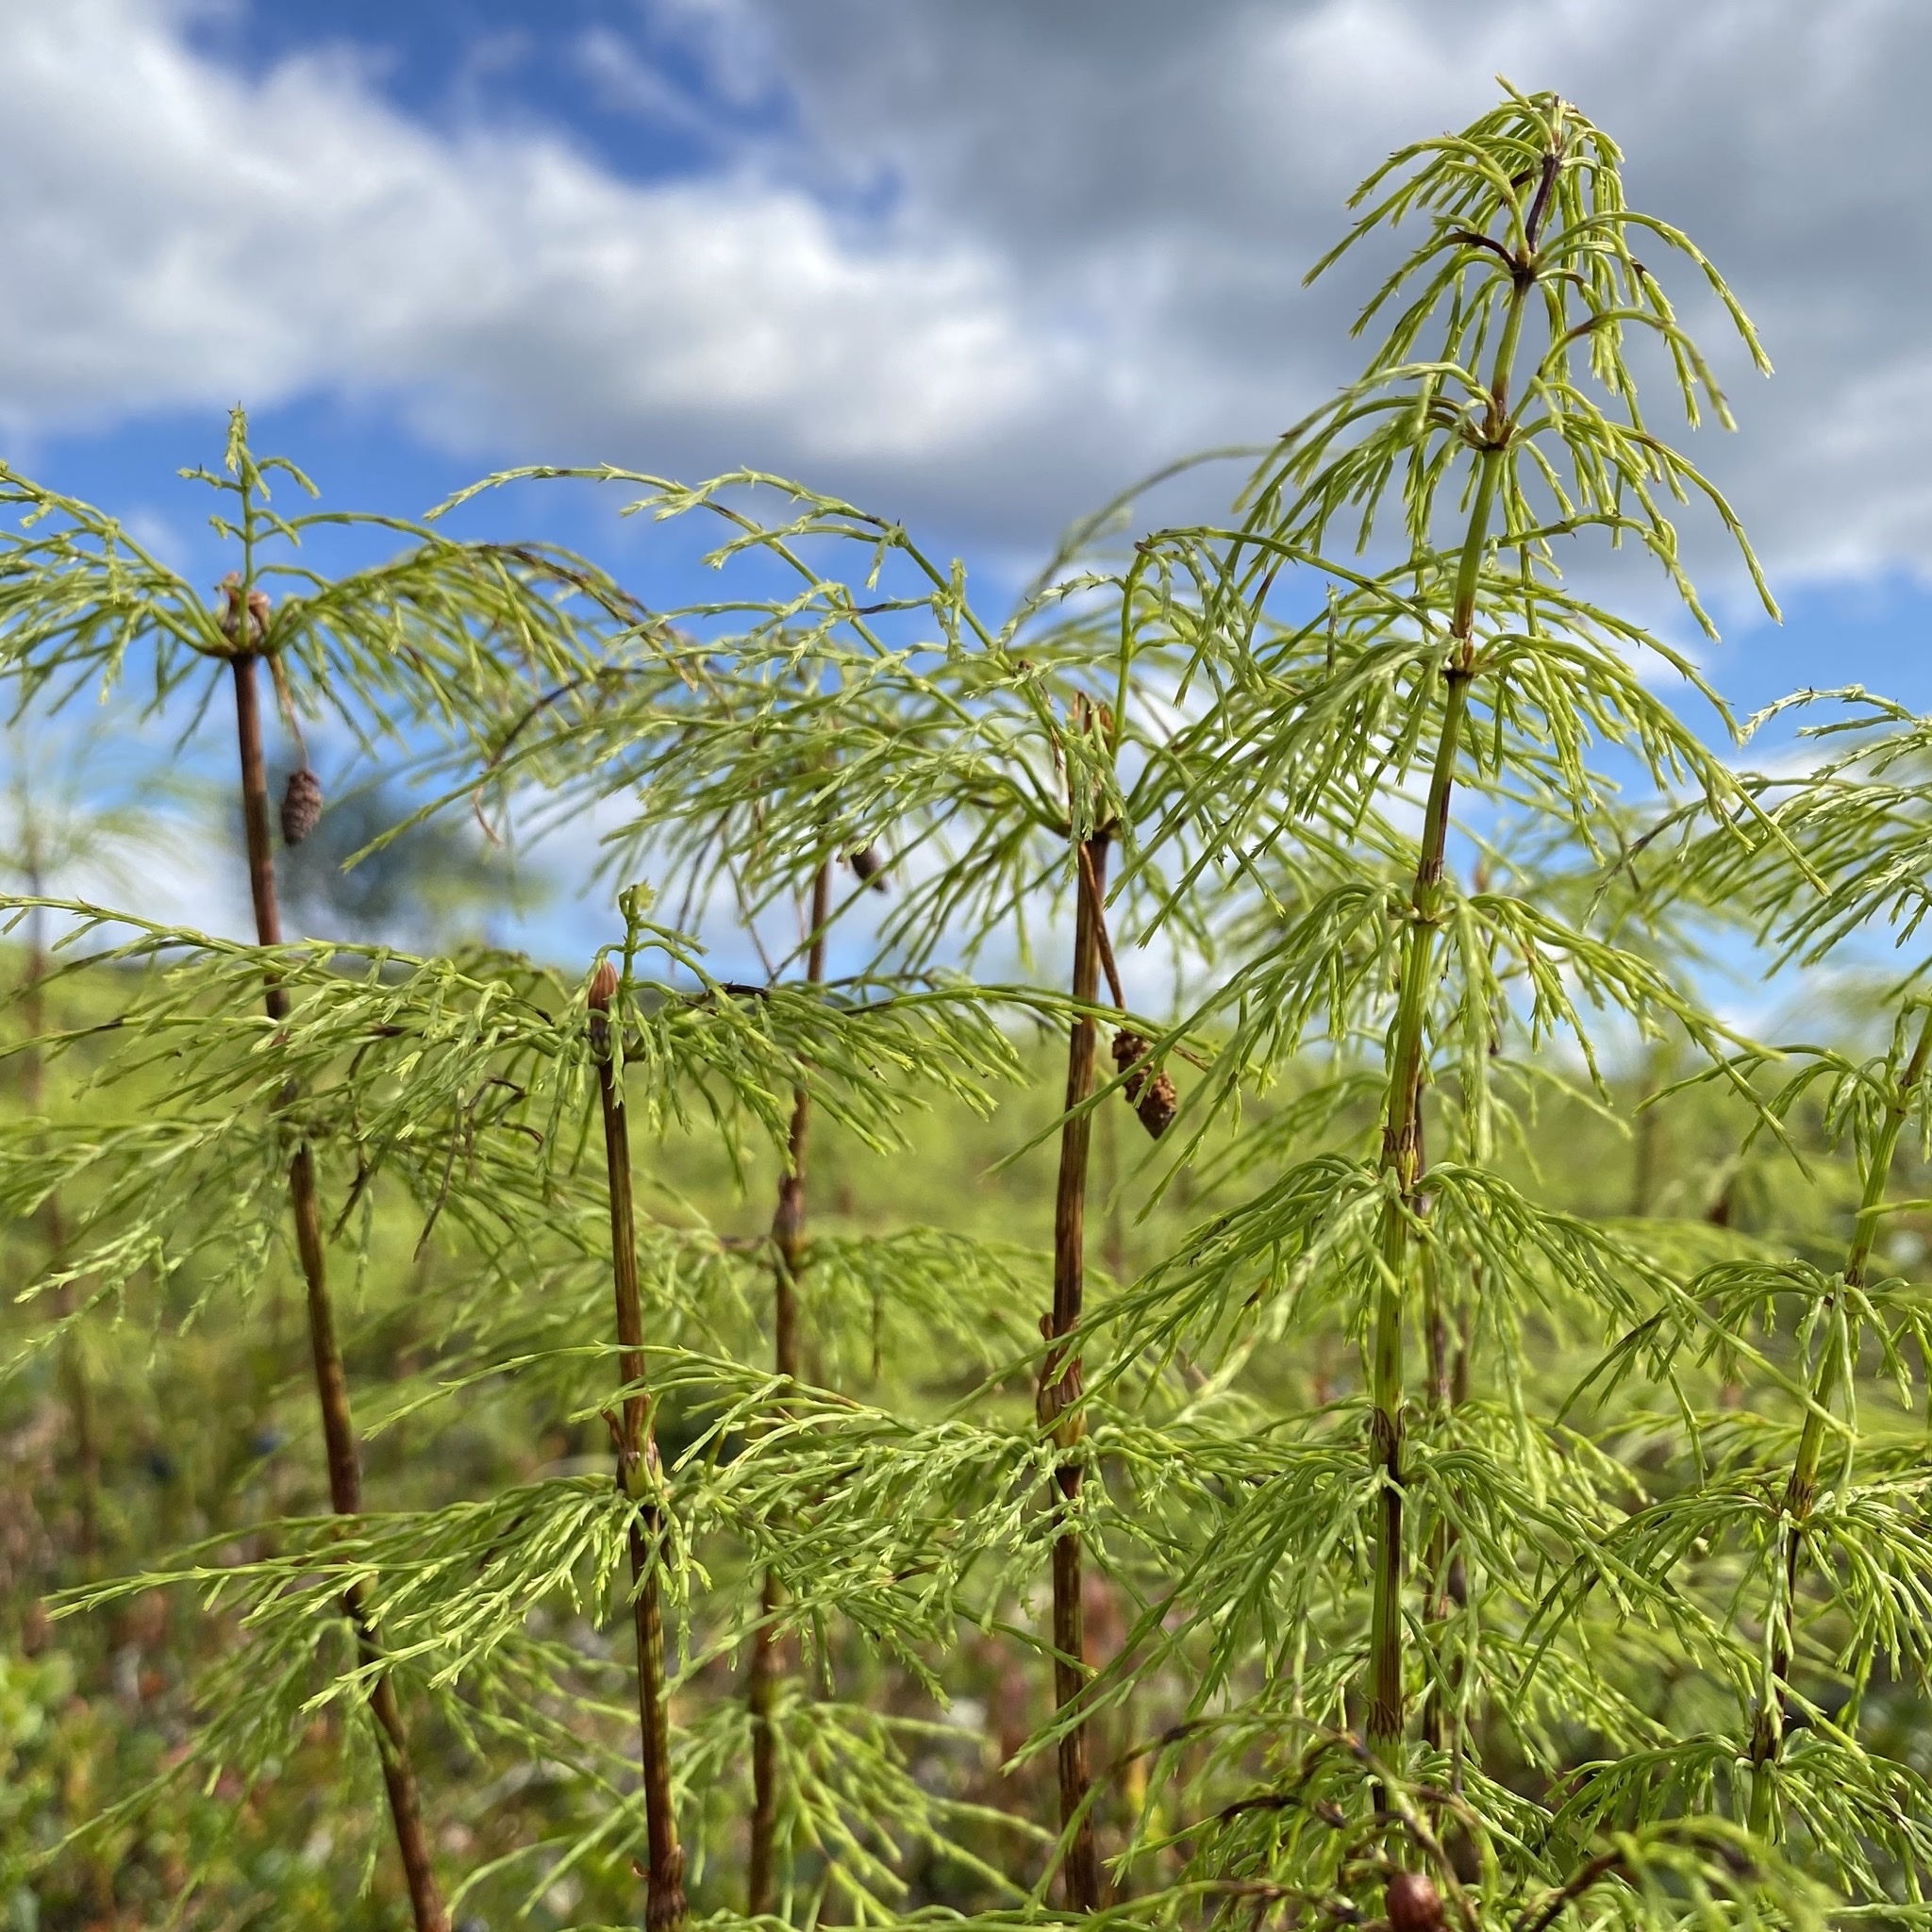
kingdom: Plantae
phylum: Tracheophyta
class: Polypodiopsida
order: Equisetales
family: Equisetaceae
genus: Equisetum
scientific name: Equisetum sylvaticum
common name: Wood horsetail
